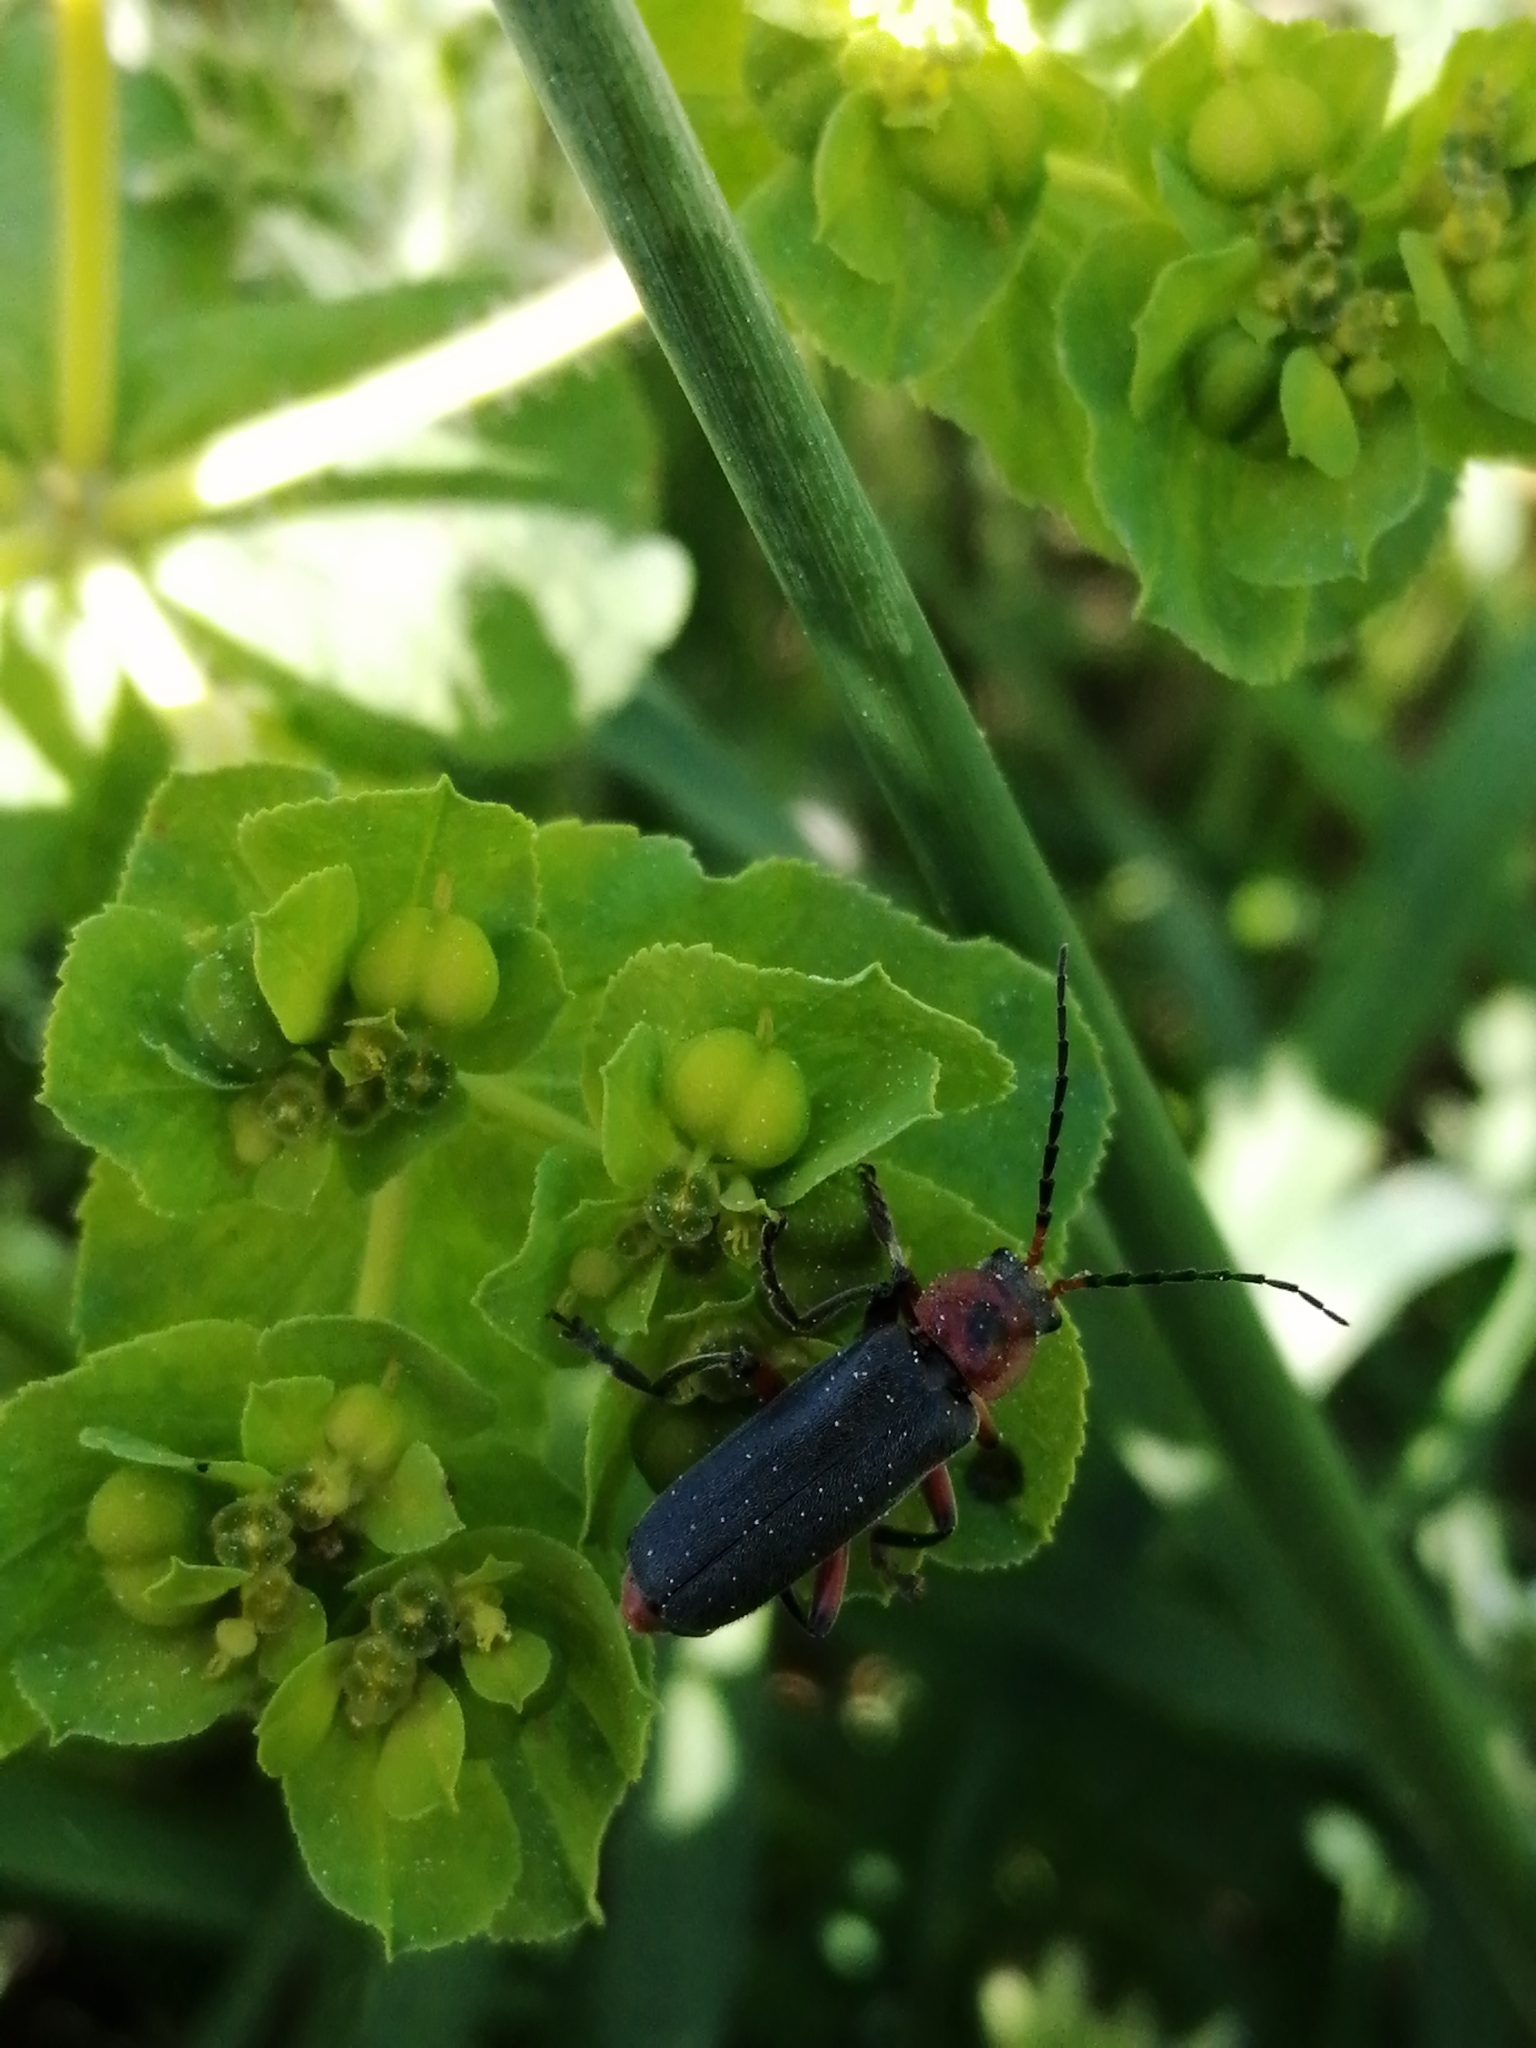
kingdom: Animalia
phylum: Arthropoda
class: Insecta
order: Coleoptera
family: Cantharidae
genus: Cantharis
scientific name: Cantharis rustica
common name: Soldier beetle
